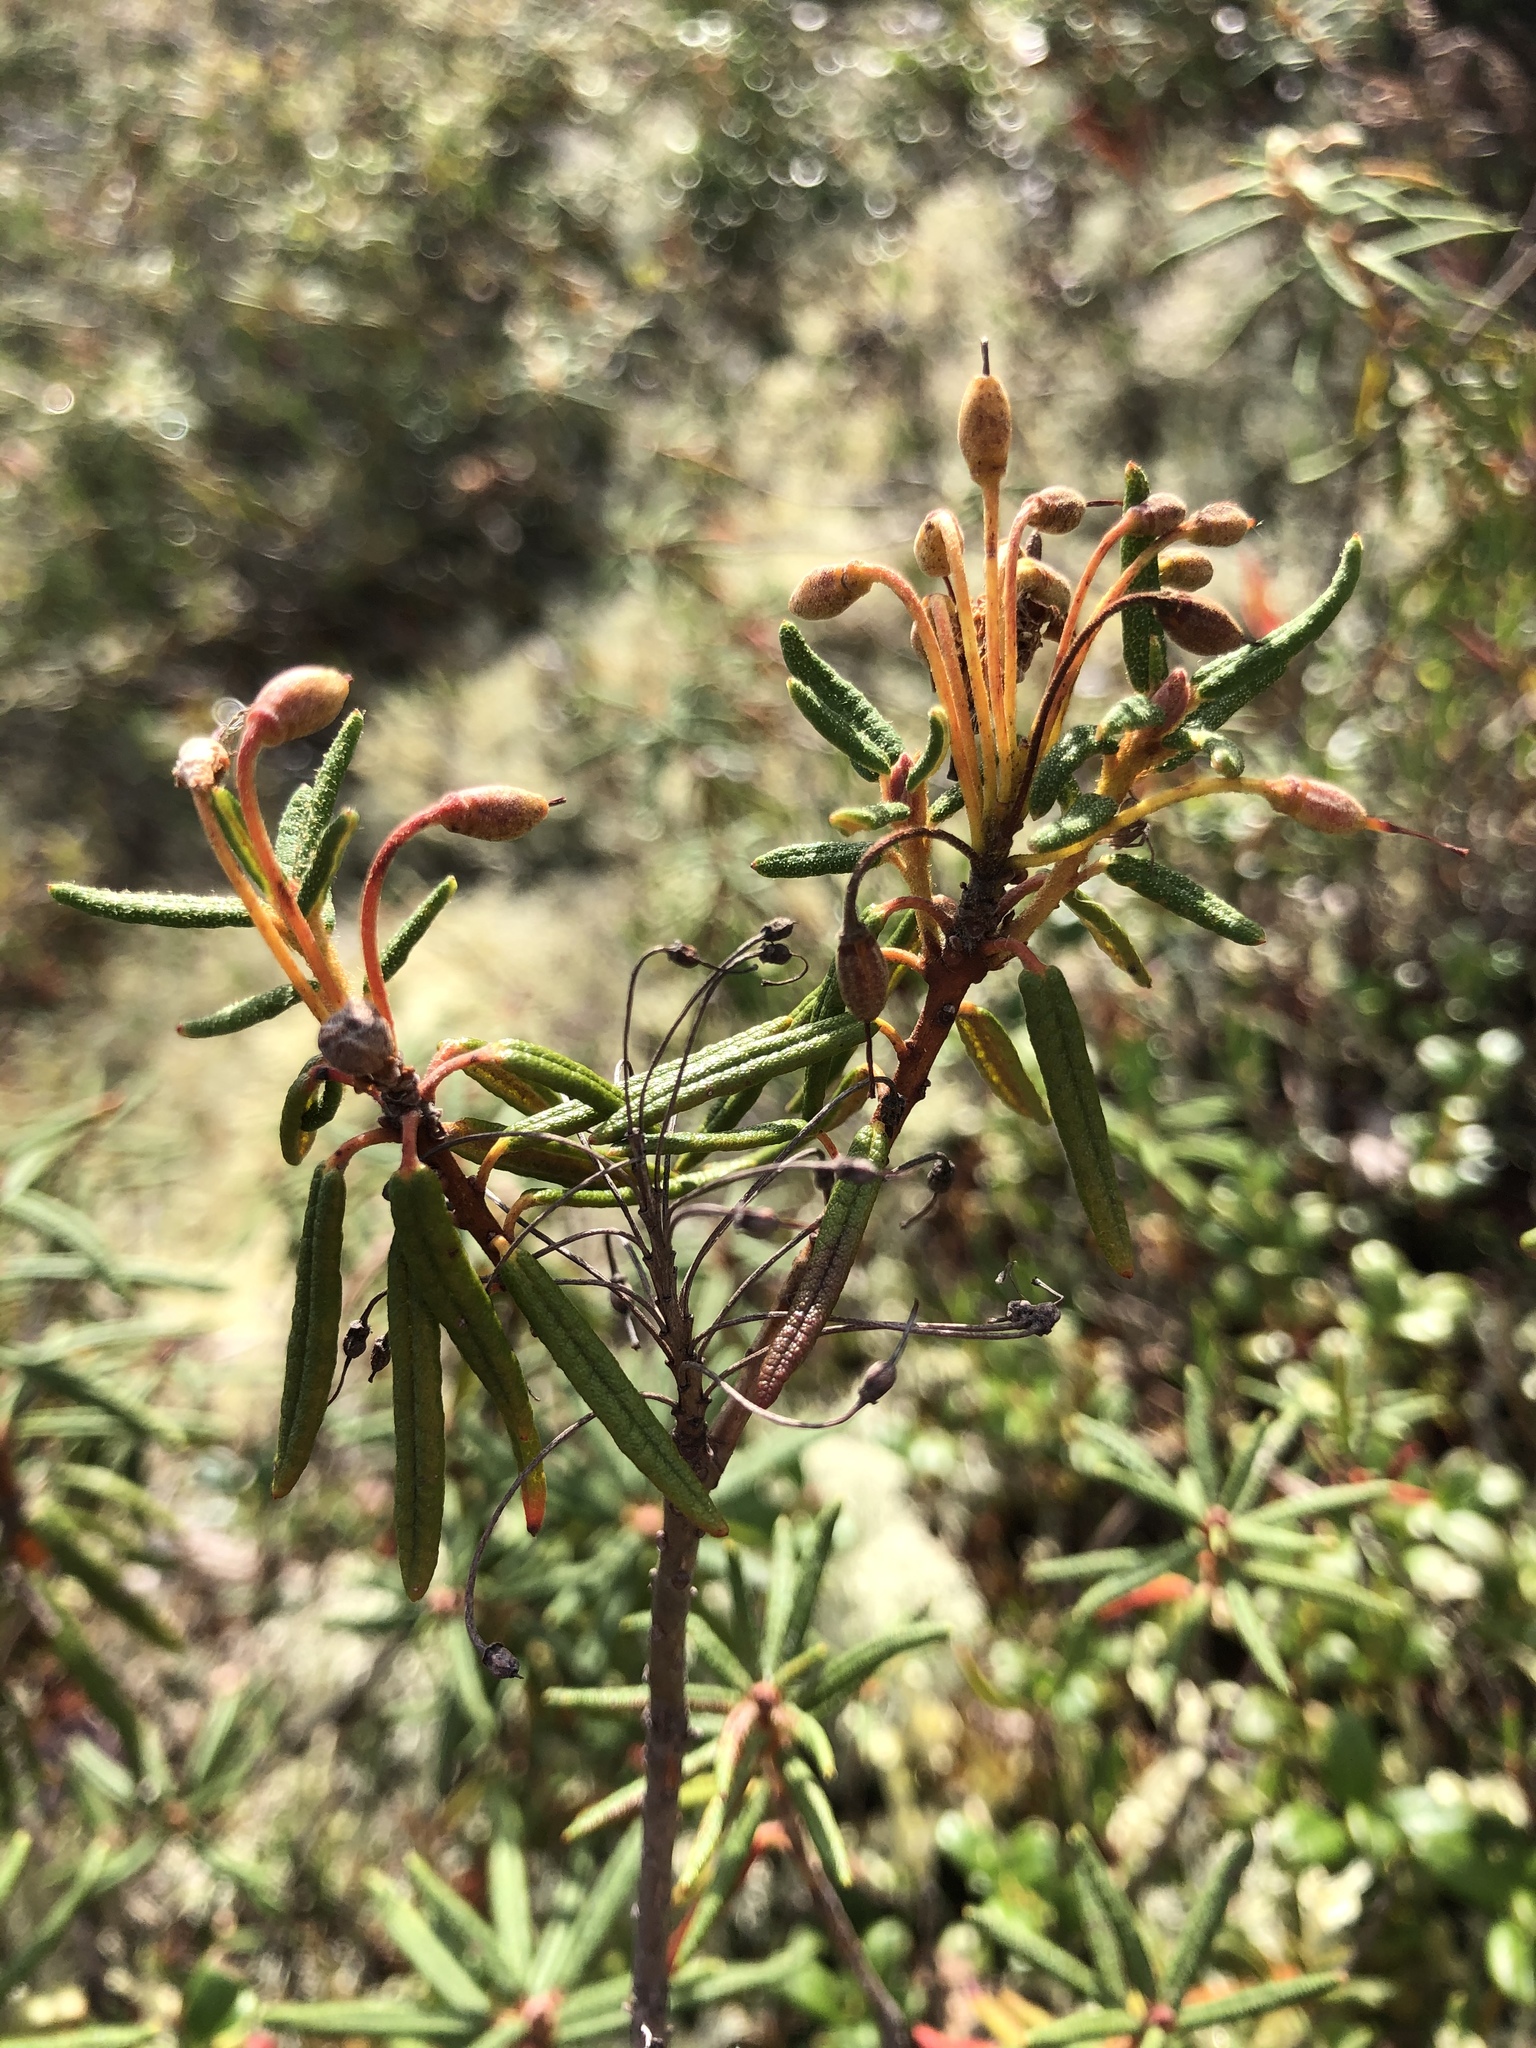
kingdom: Plantae
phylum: Tracheophyta
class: Magnoliopsida
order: Ericales
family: Ericaceae
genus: Rhododendron
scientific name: Rhododendron tomentosum
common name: Marsh labrador tea
